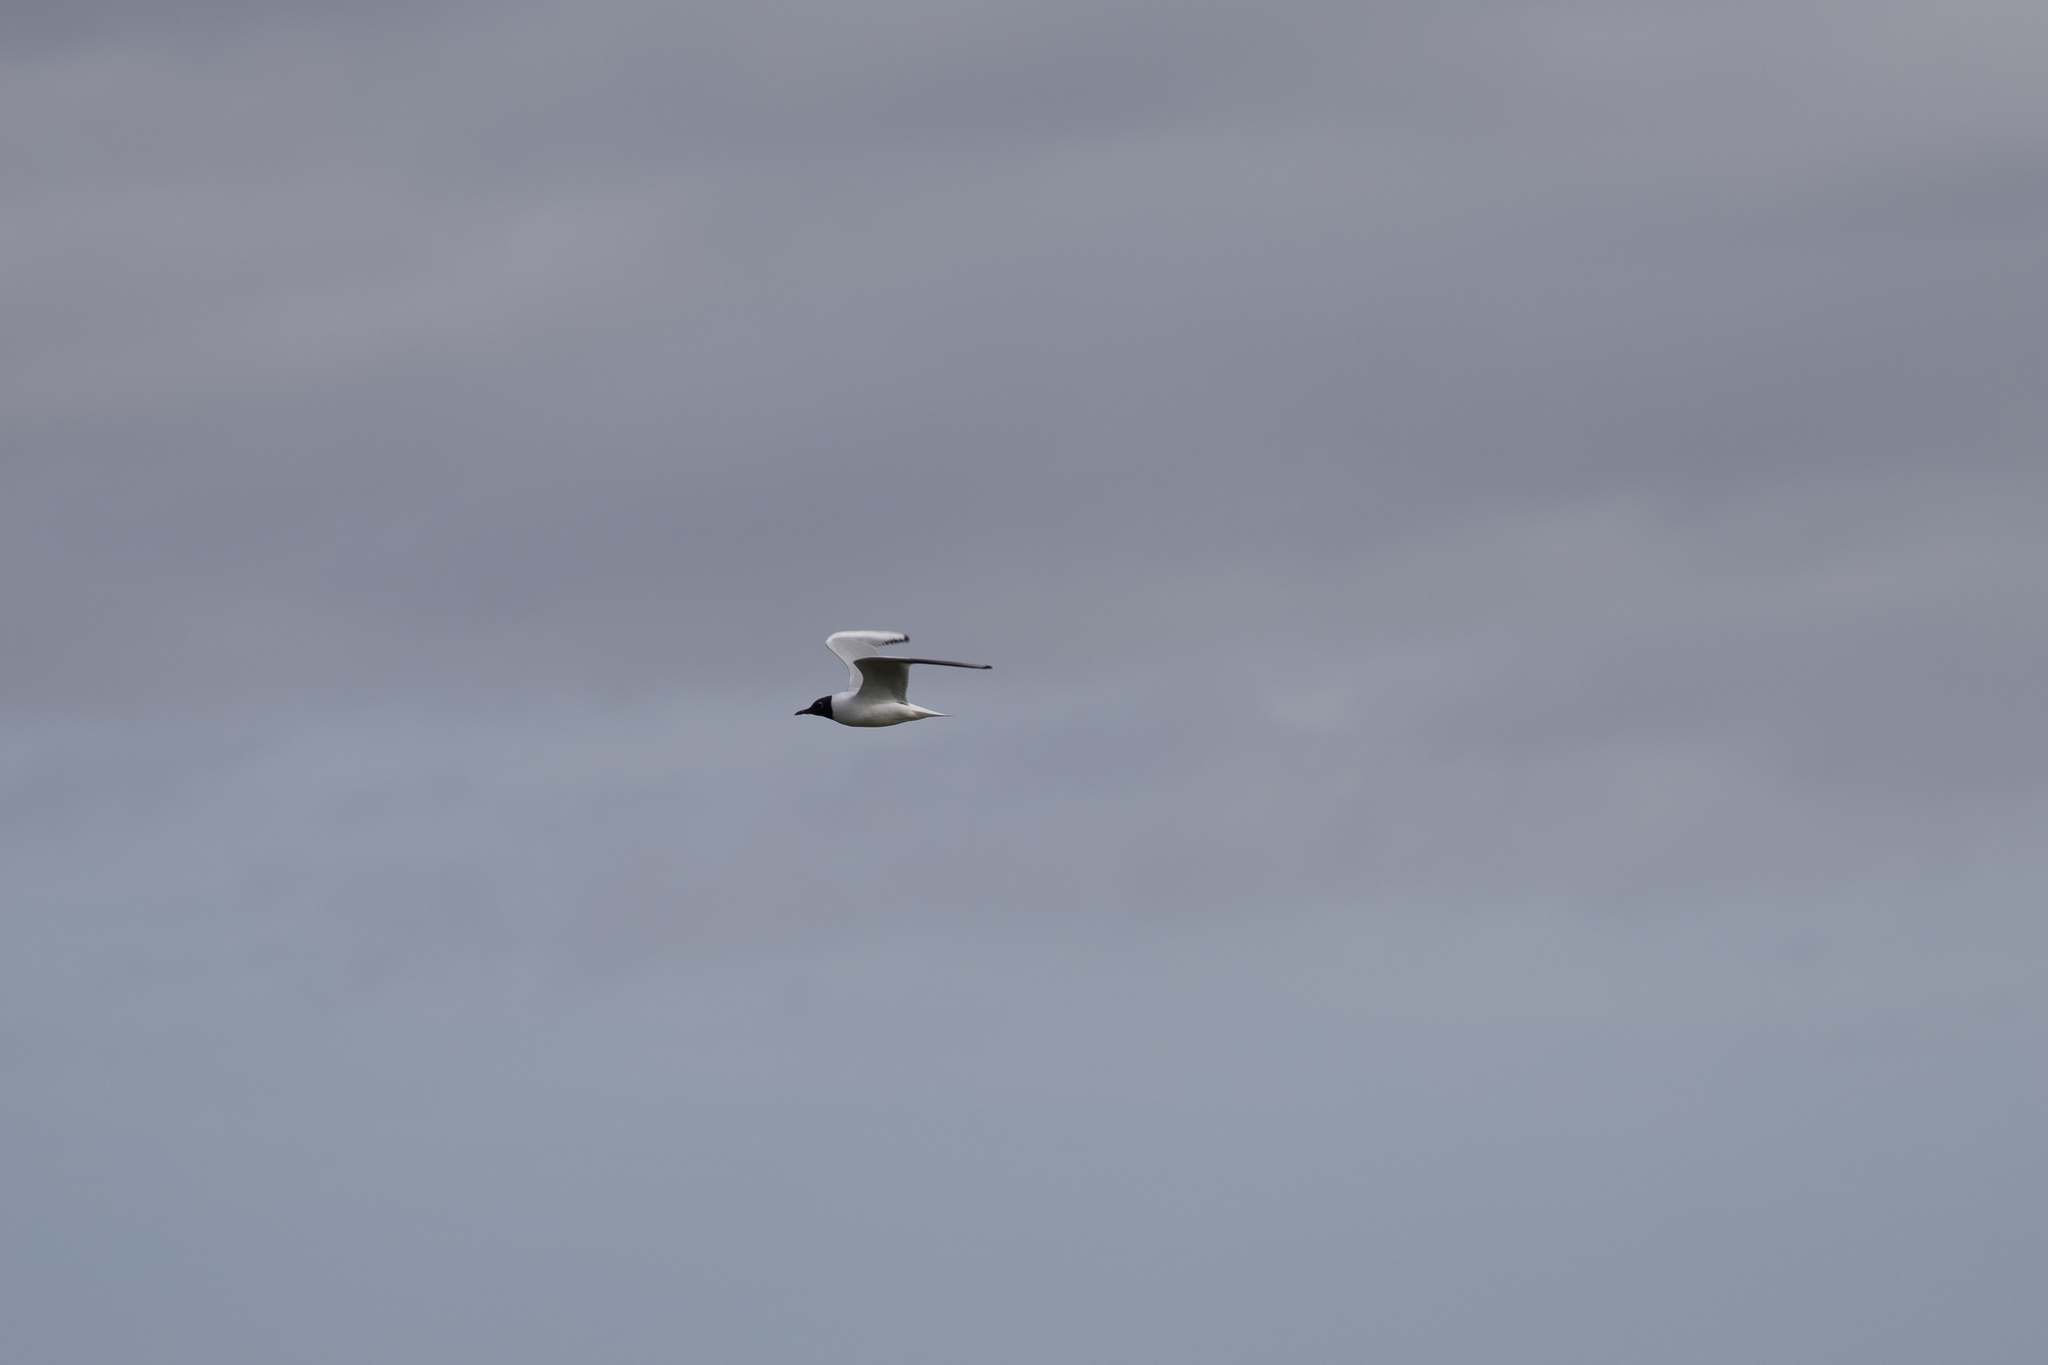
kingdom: Animalia
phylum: Chordata
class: Aves
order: Charadriiformes
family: Laridae
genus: Chroicocephalus
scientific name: Chroicocephalus ridibundus
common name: Black-headed gull
